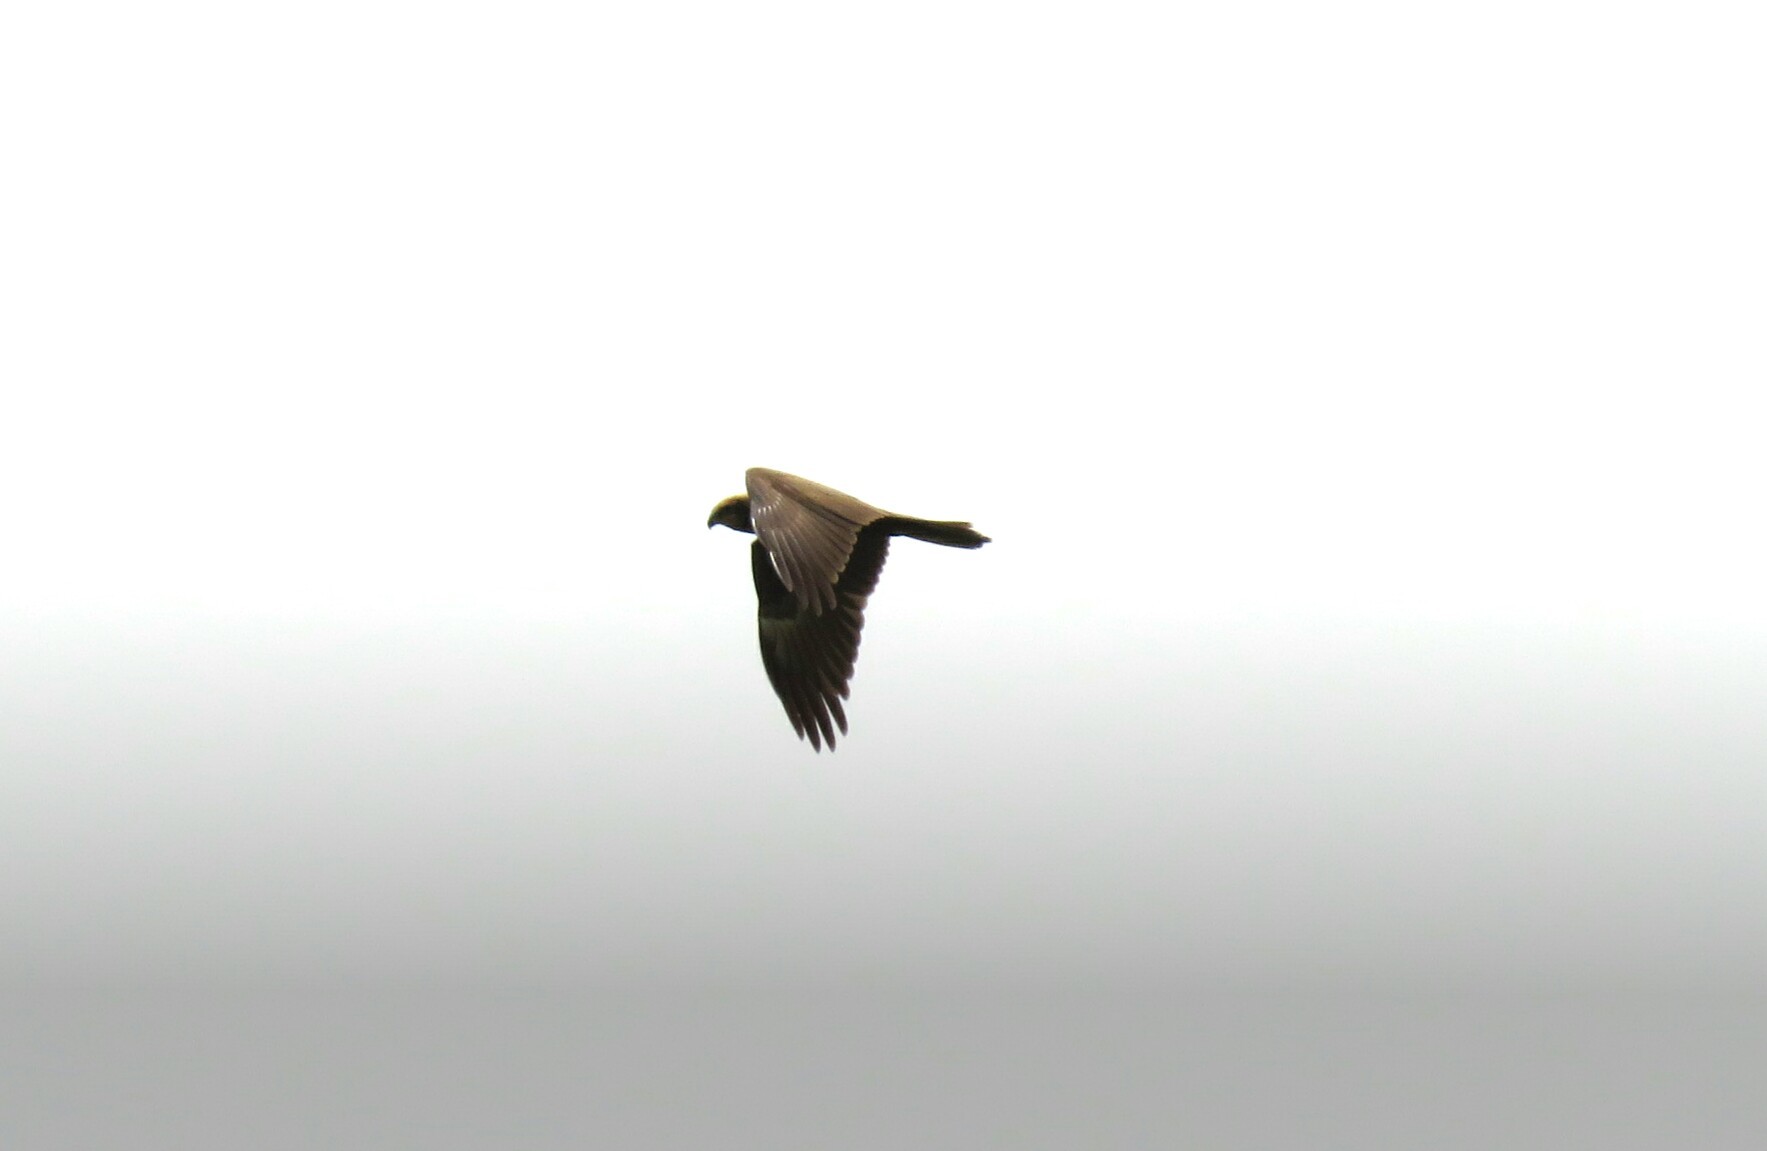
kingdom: Animalia
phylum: Chordata
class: Aves
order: Accipitriformes
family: Accipitridae
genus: Circus
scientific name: Circus aeruginosus
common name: Western marsh harrier
